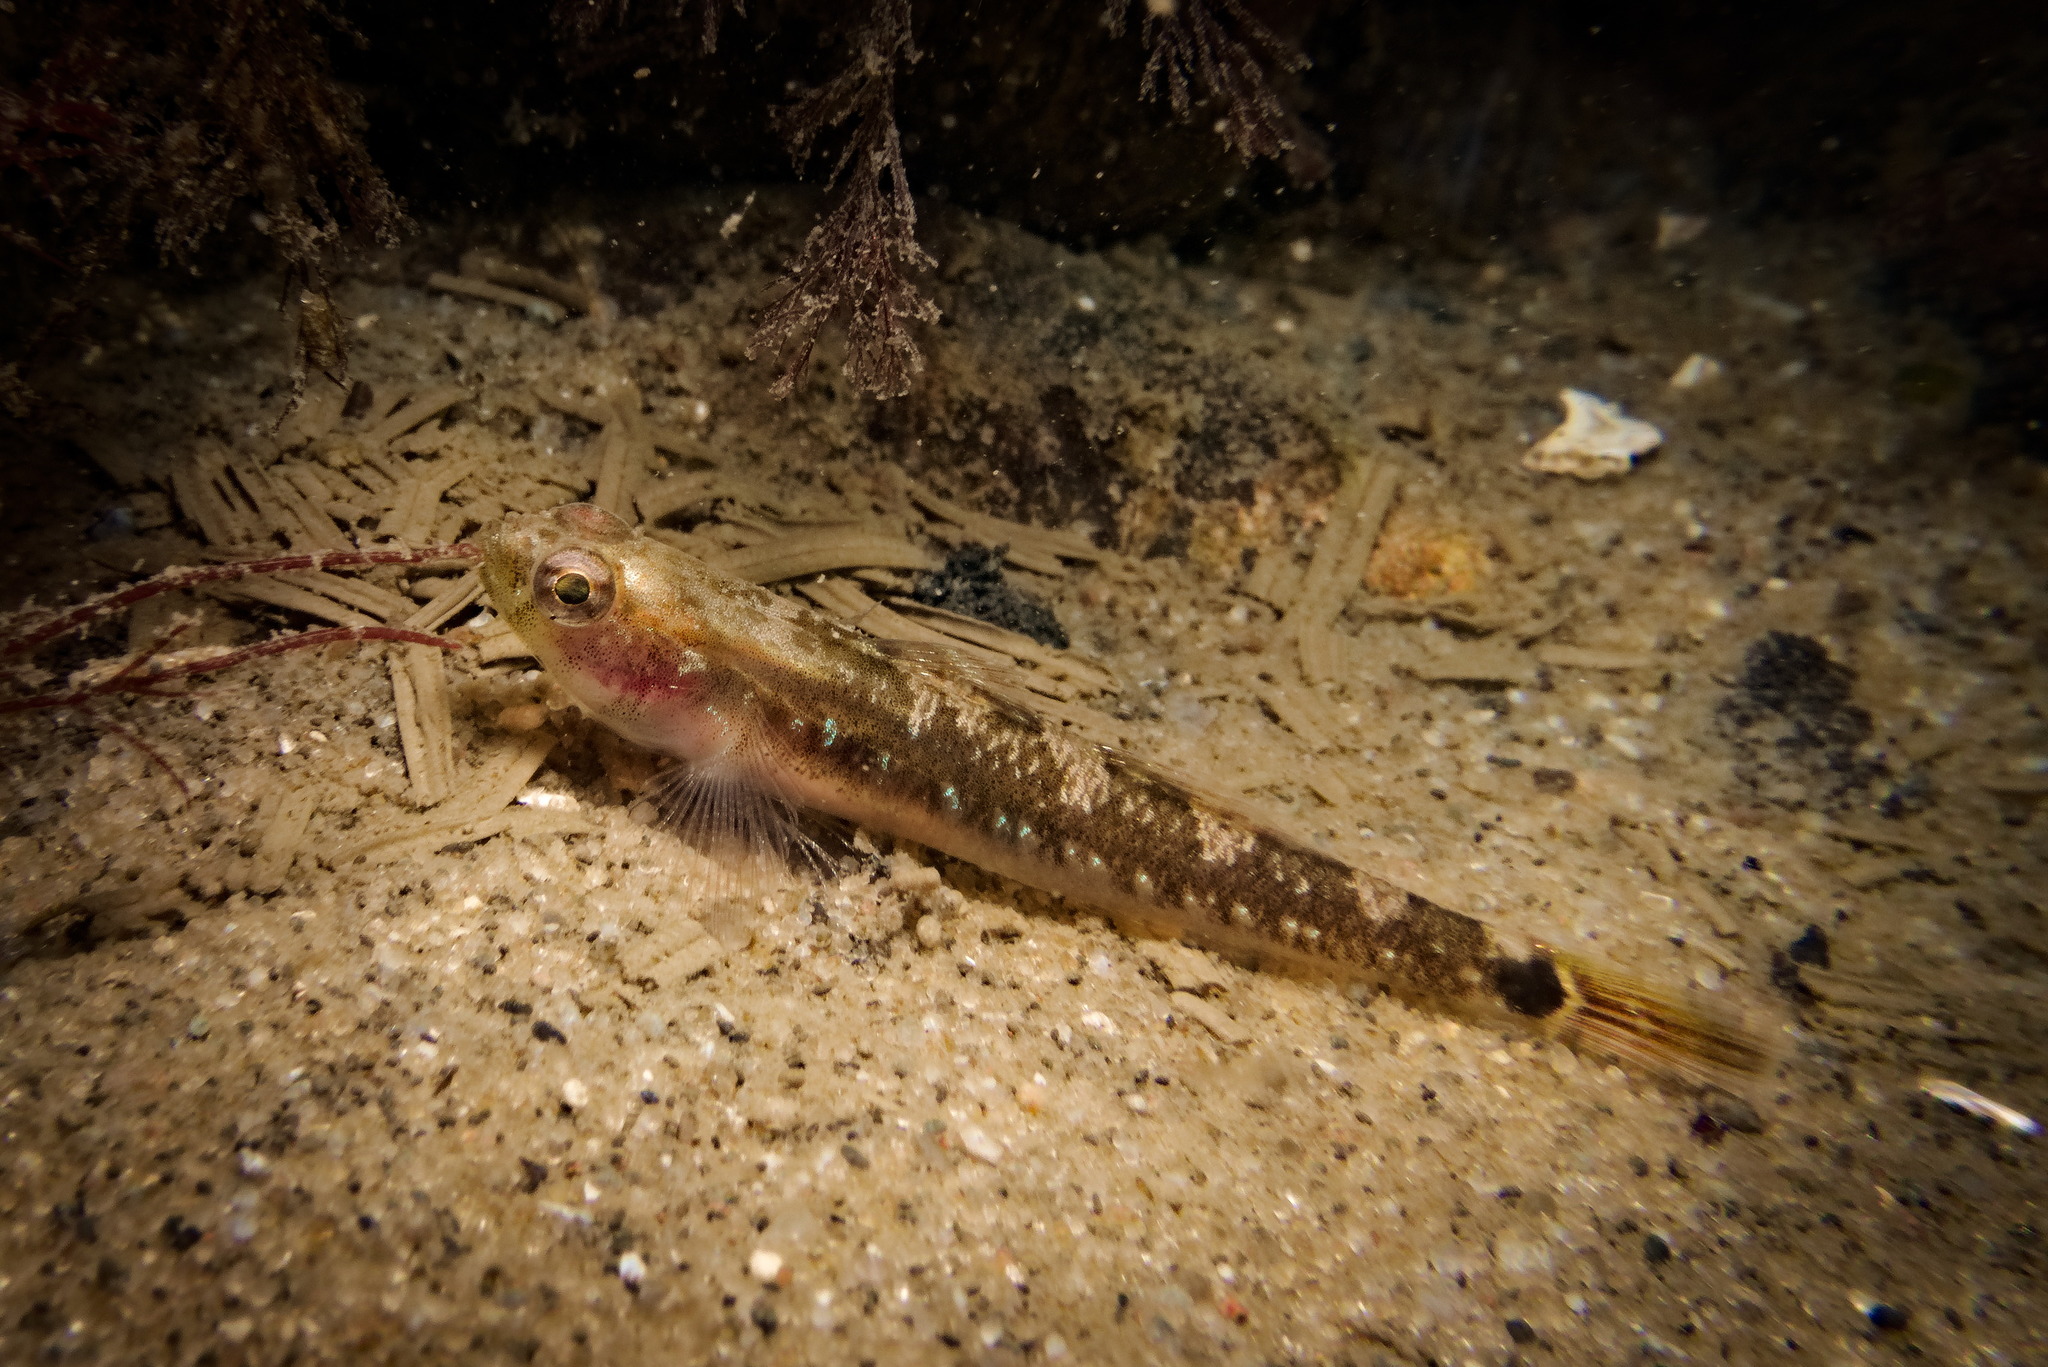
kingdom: Animalia
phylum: Chordata
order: Perciformes
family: Gobiidae
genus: Gobiusculus
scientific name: Gobiusculus flavescens
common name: Two-spotted goby
